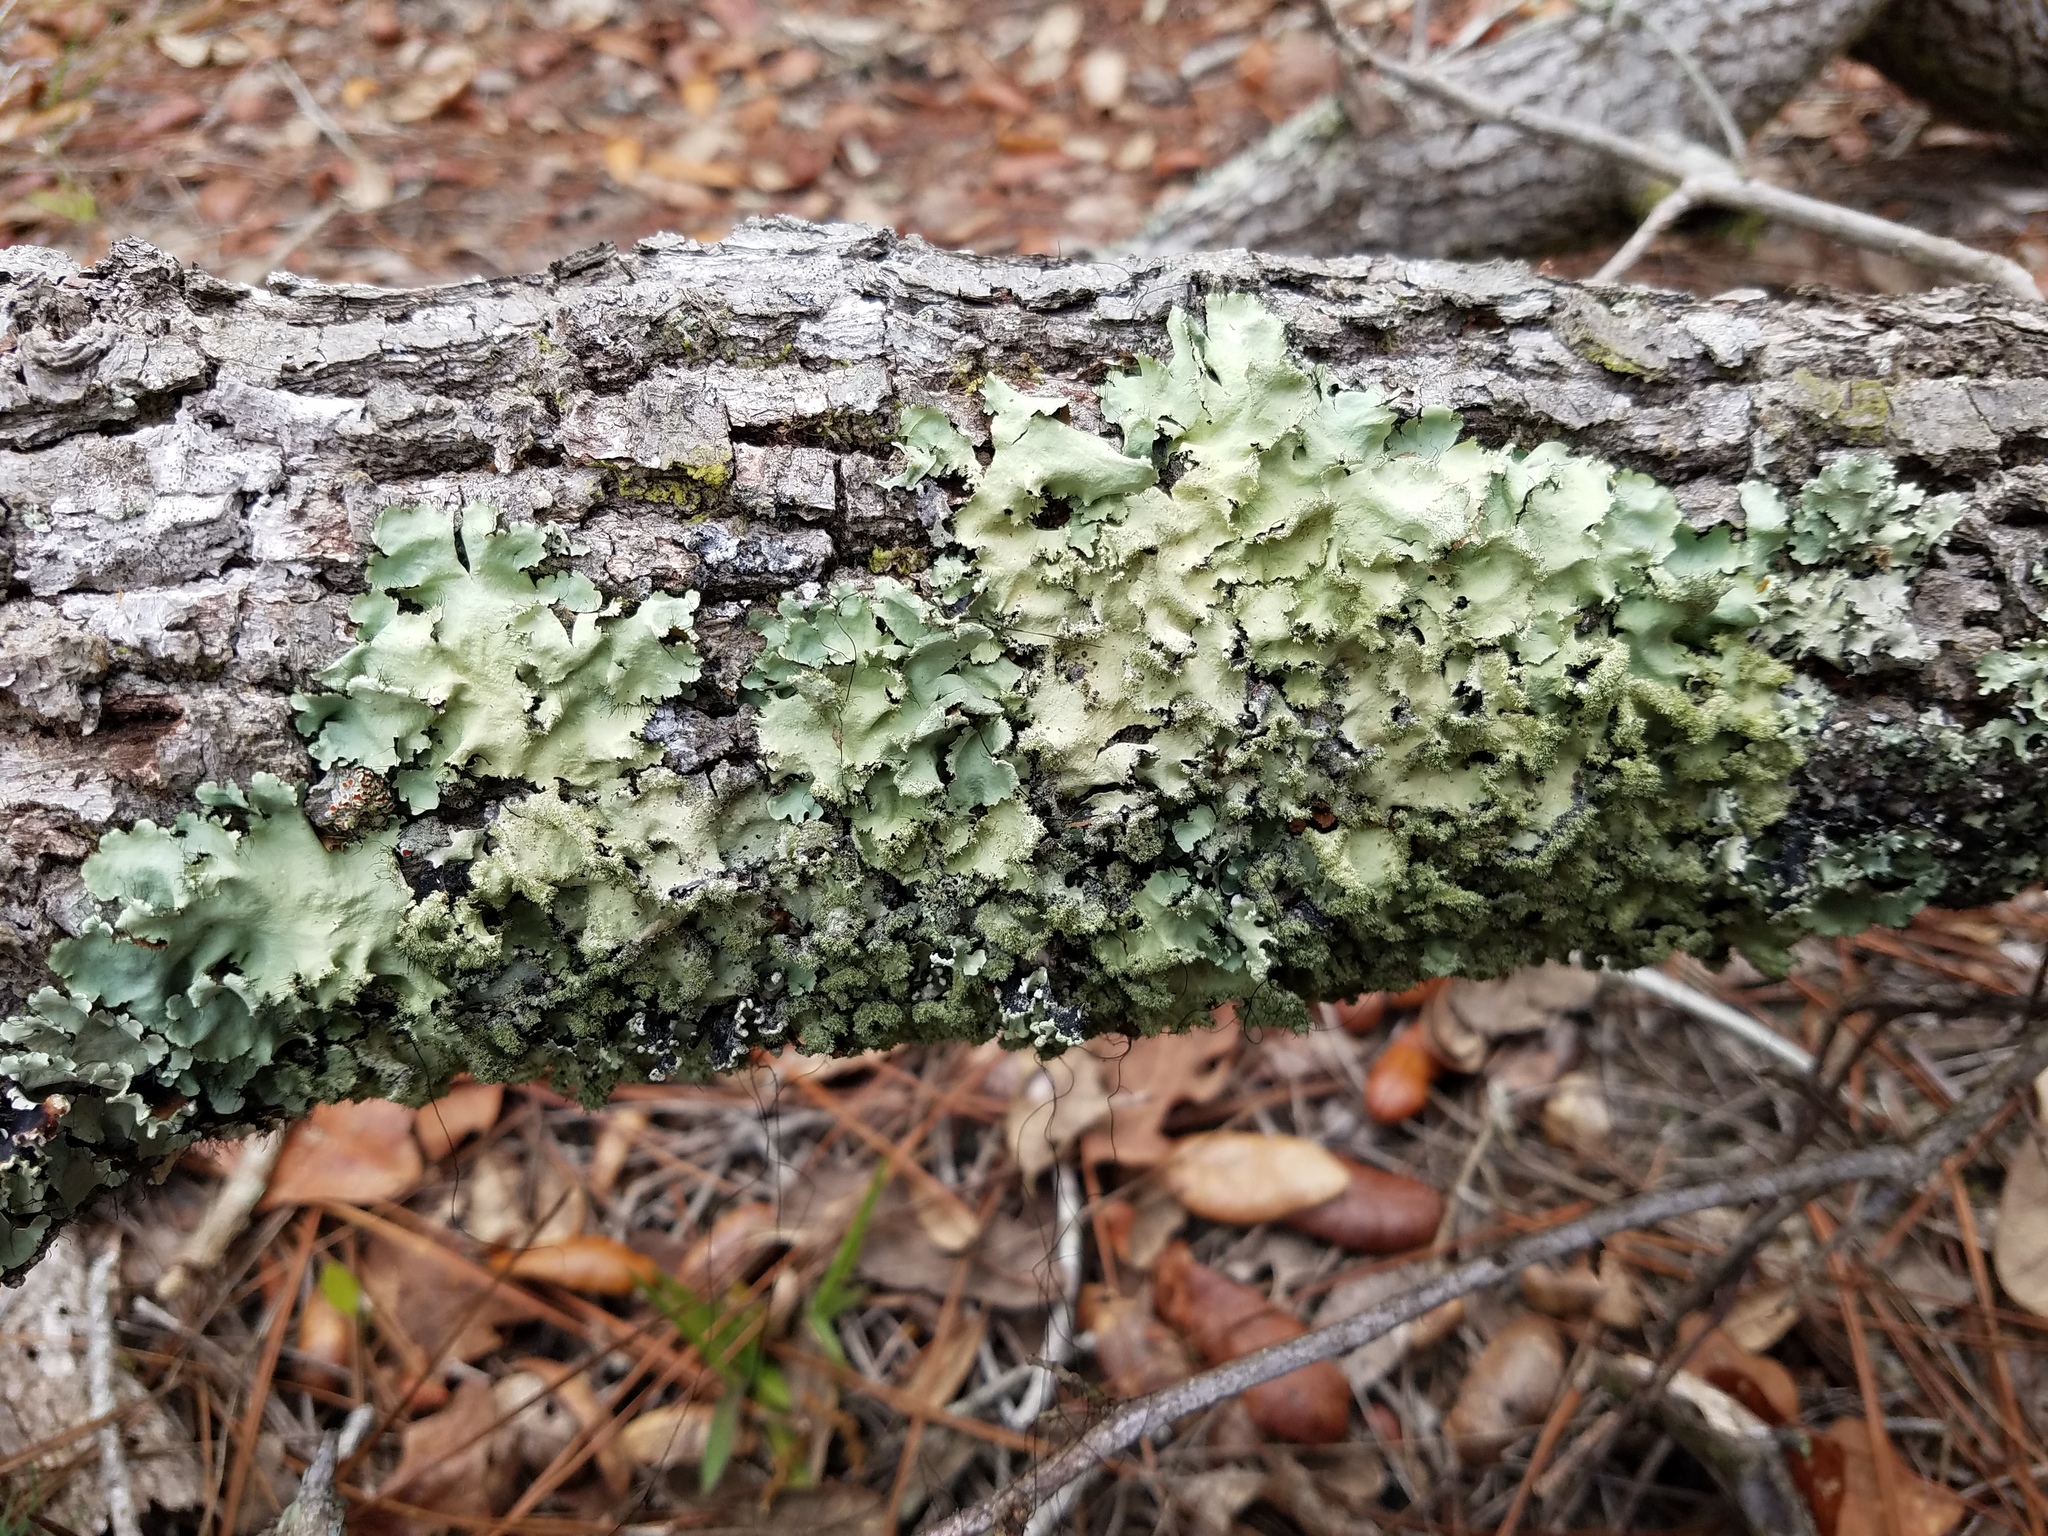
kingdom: Fungi
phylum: Ascomycota
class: Lecanoromycetes
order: Lecanorales
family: Parmeliaceae
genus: Parmotrema
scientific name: Parmotrema xanthinum
